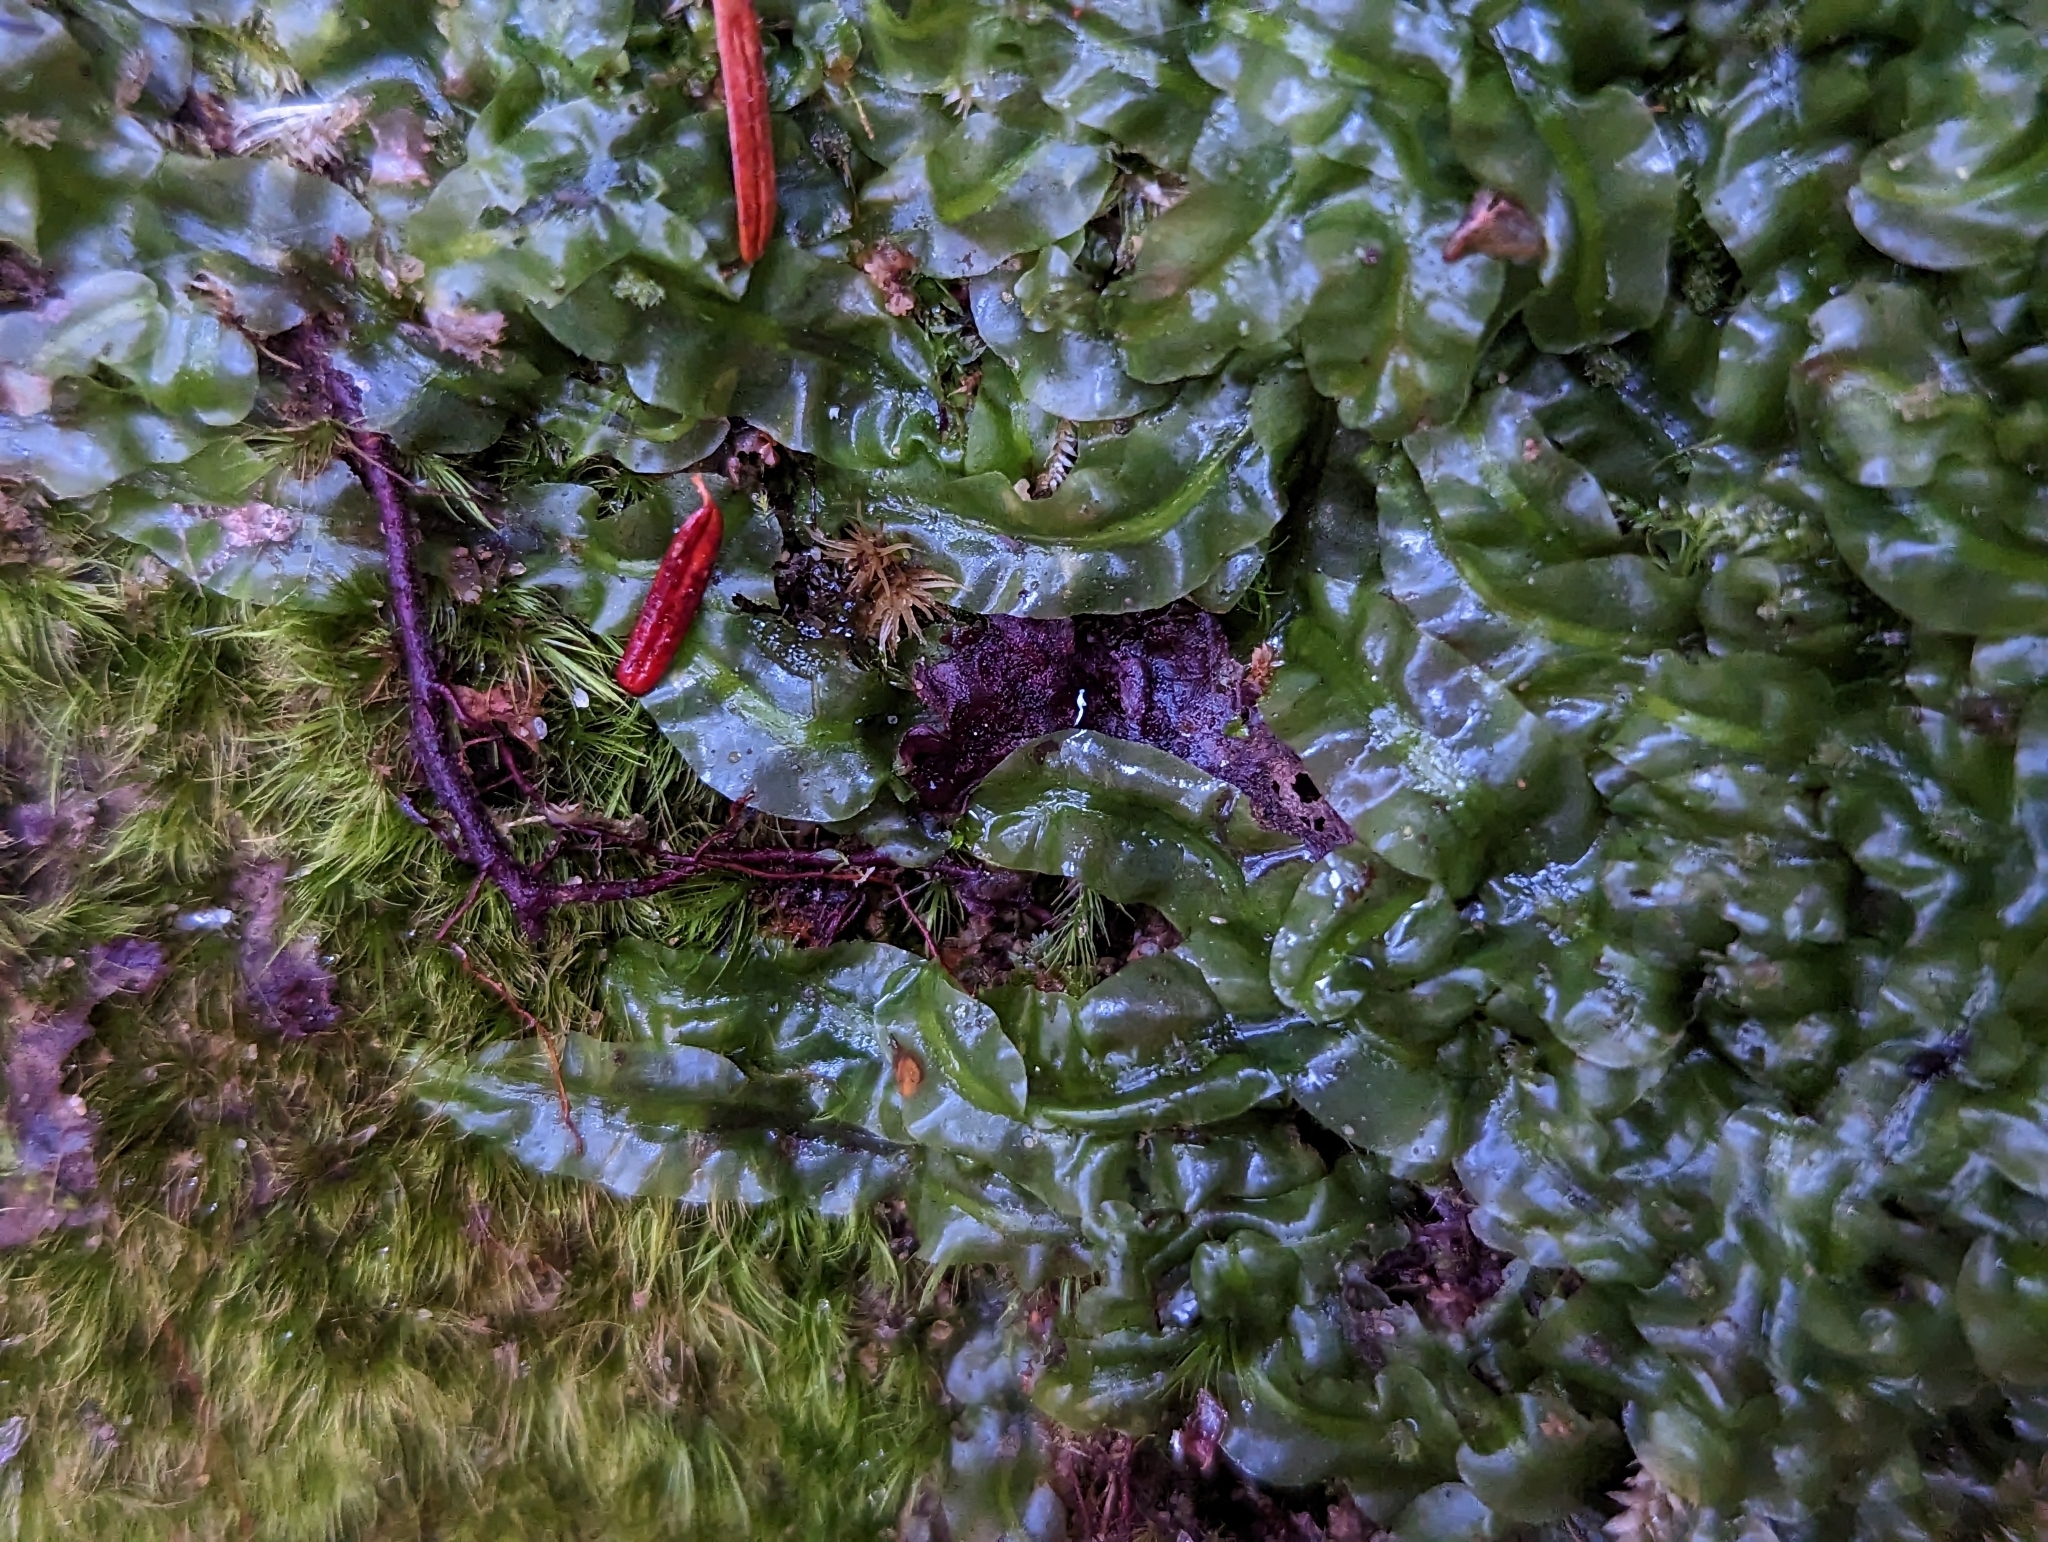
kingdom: Plantae
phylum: Marchantiophyta
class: Jungermanniopsida
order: Pallaviciniales
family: Pallaviciniaceae
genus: Pallavicinia
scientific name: Pallavicinia lyellii
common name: Veilwort
